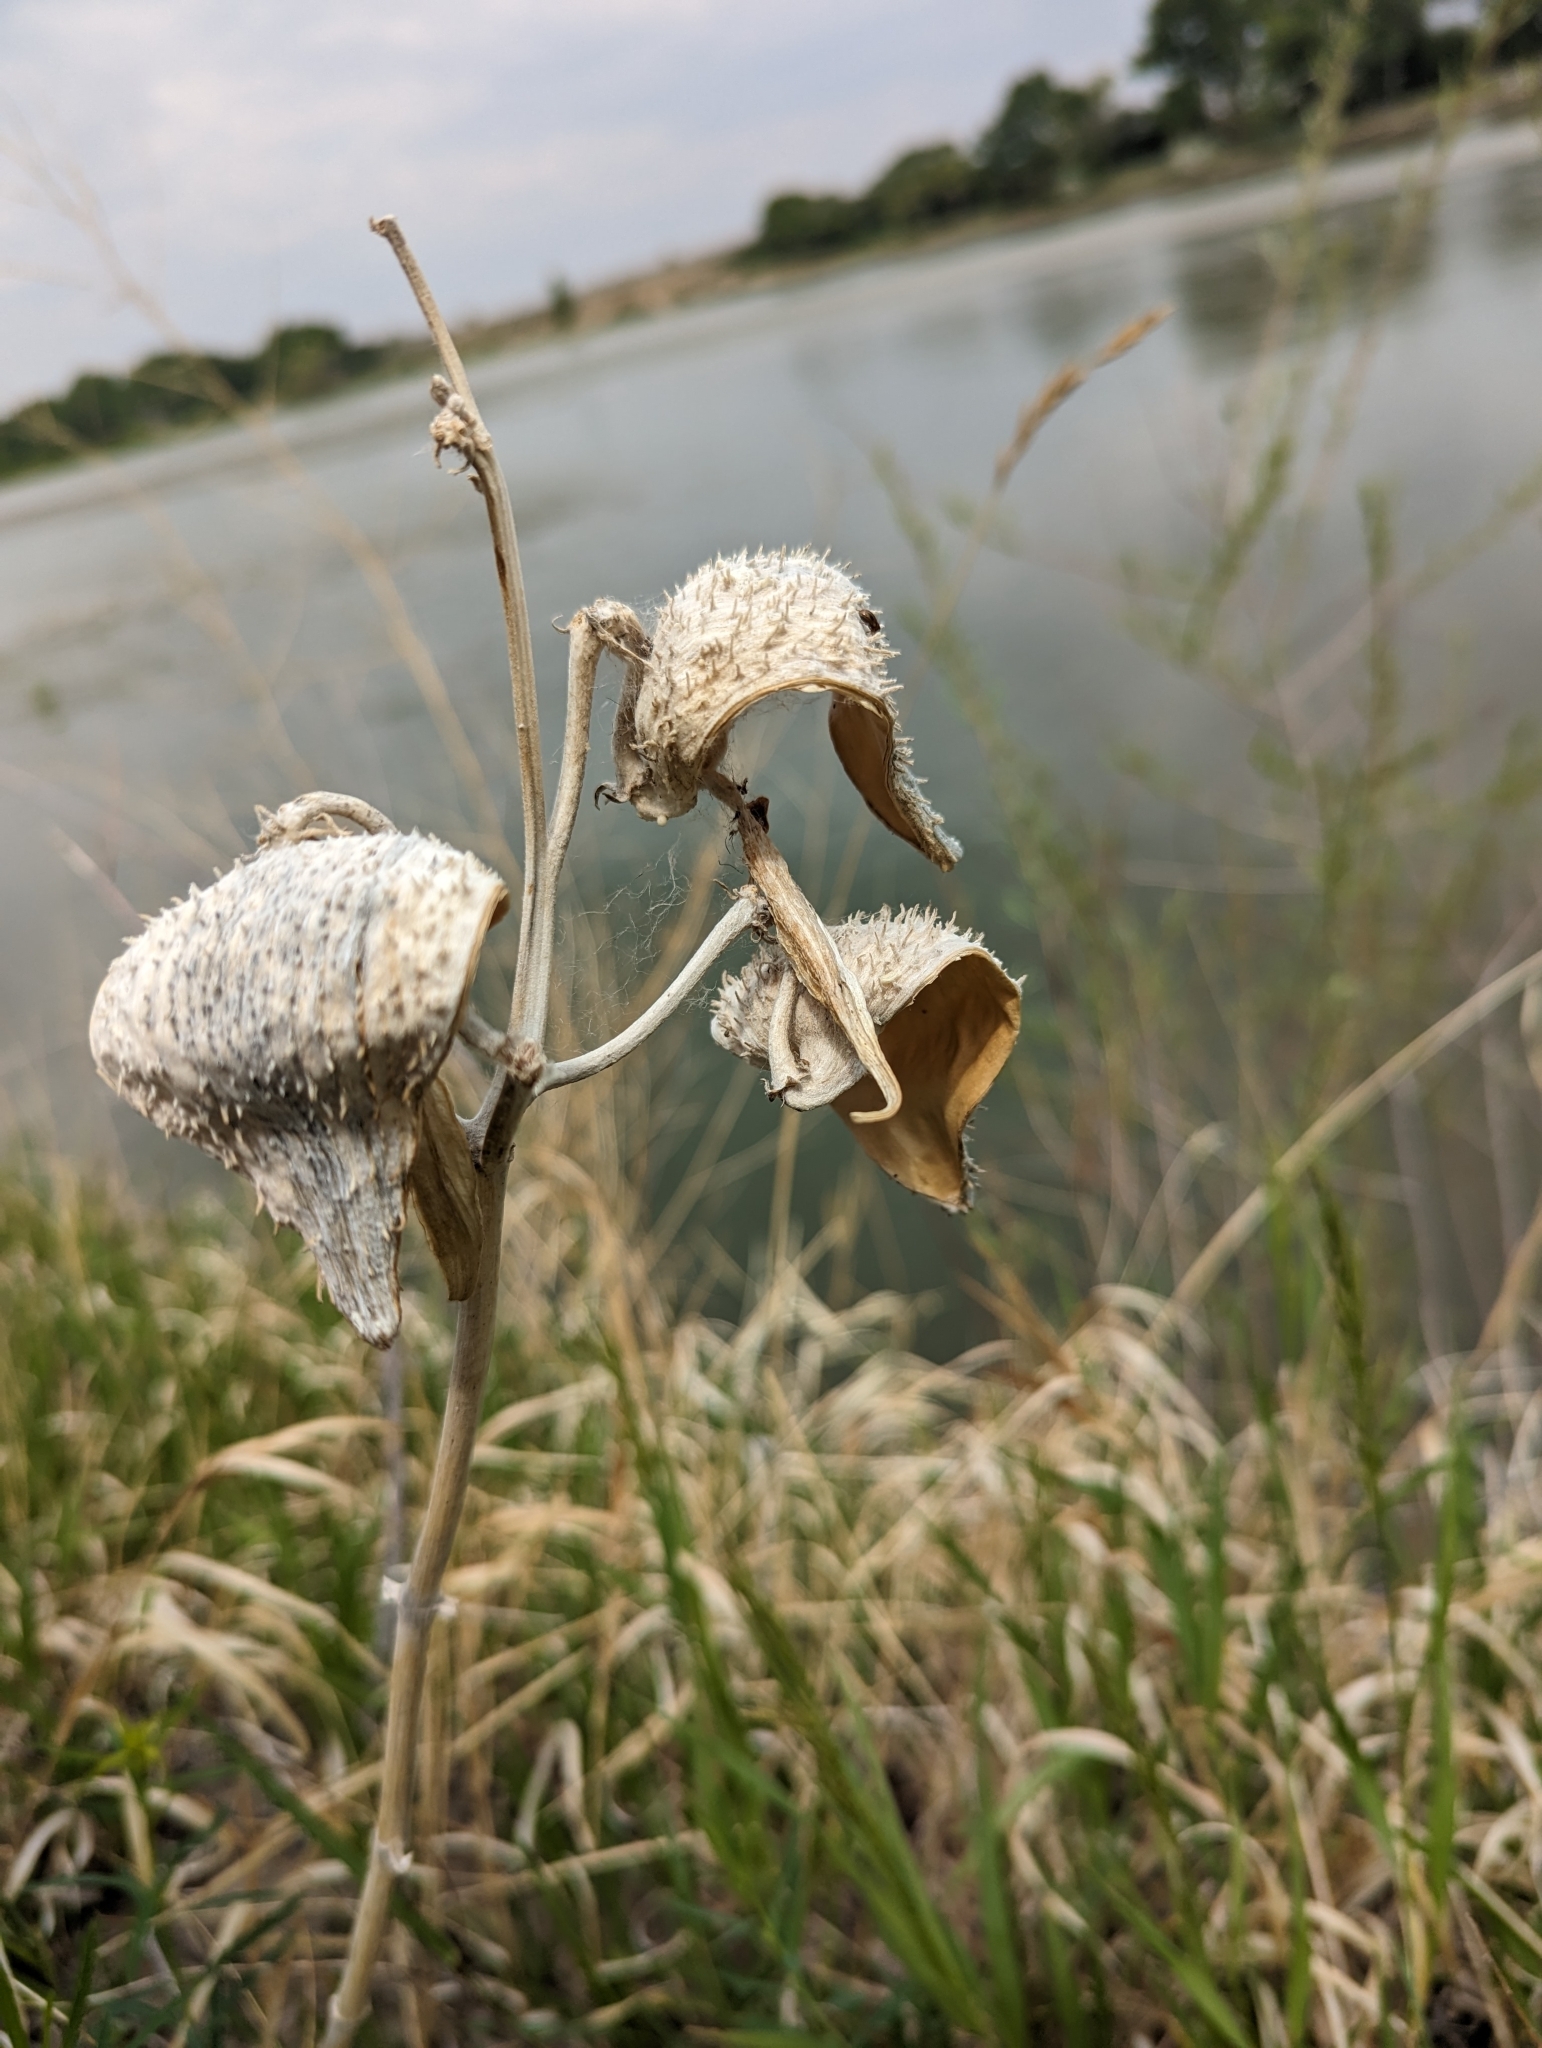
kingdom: Plantae
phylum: Tracheophyta
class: Magnoliopsida
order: Gentianales
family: Apocynaceae
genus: Asclepias
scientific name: Asclepias speciosa
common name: Showy milkweed
